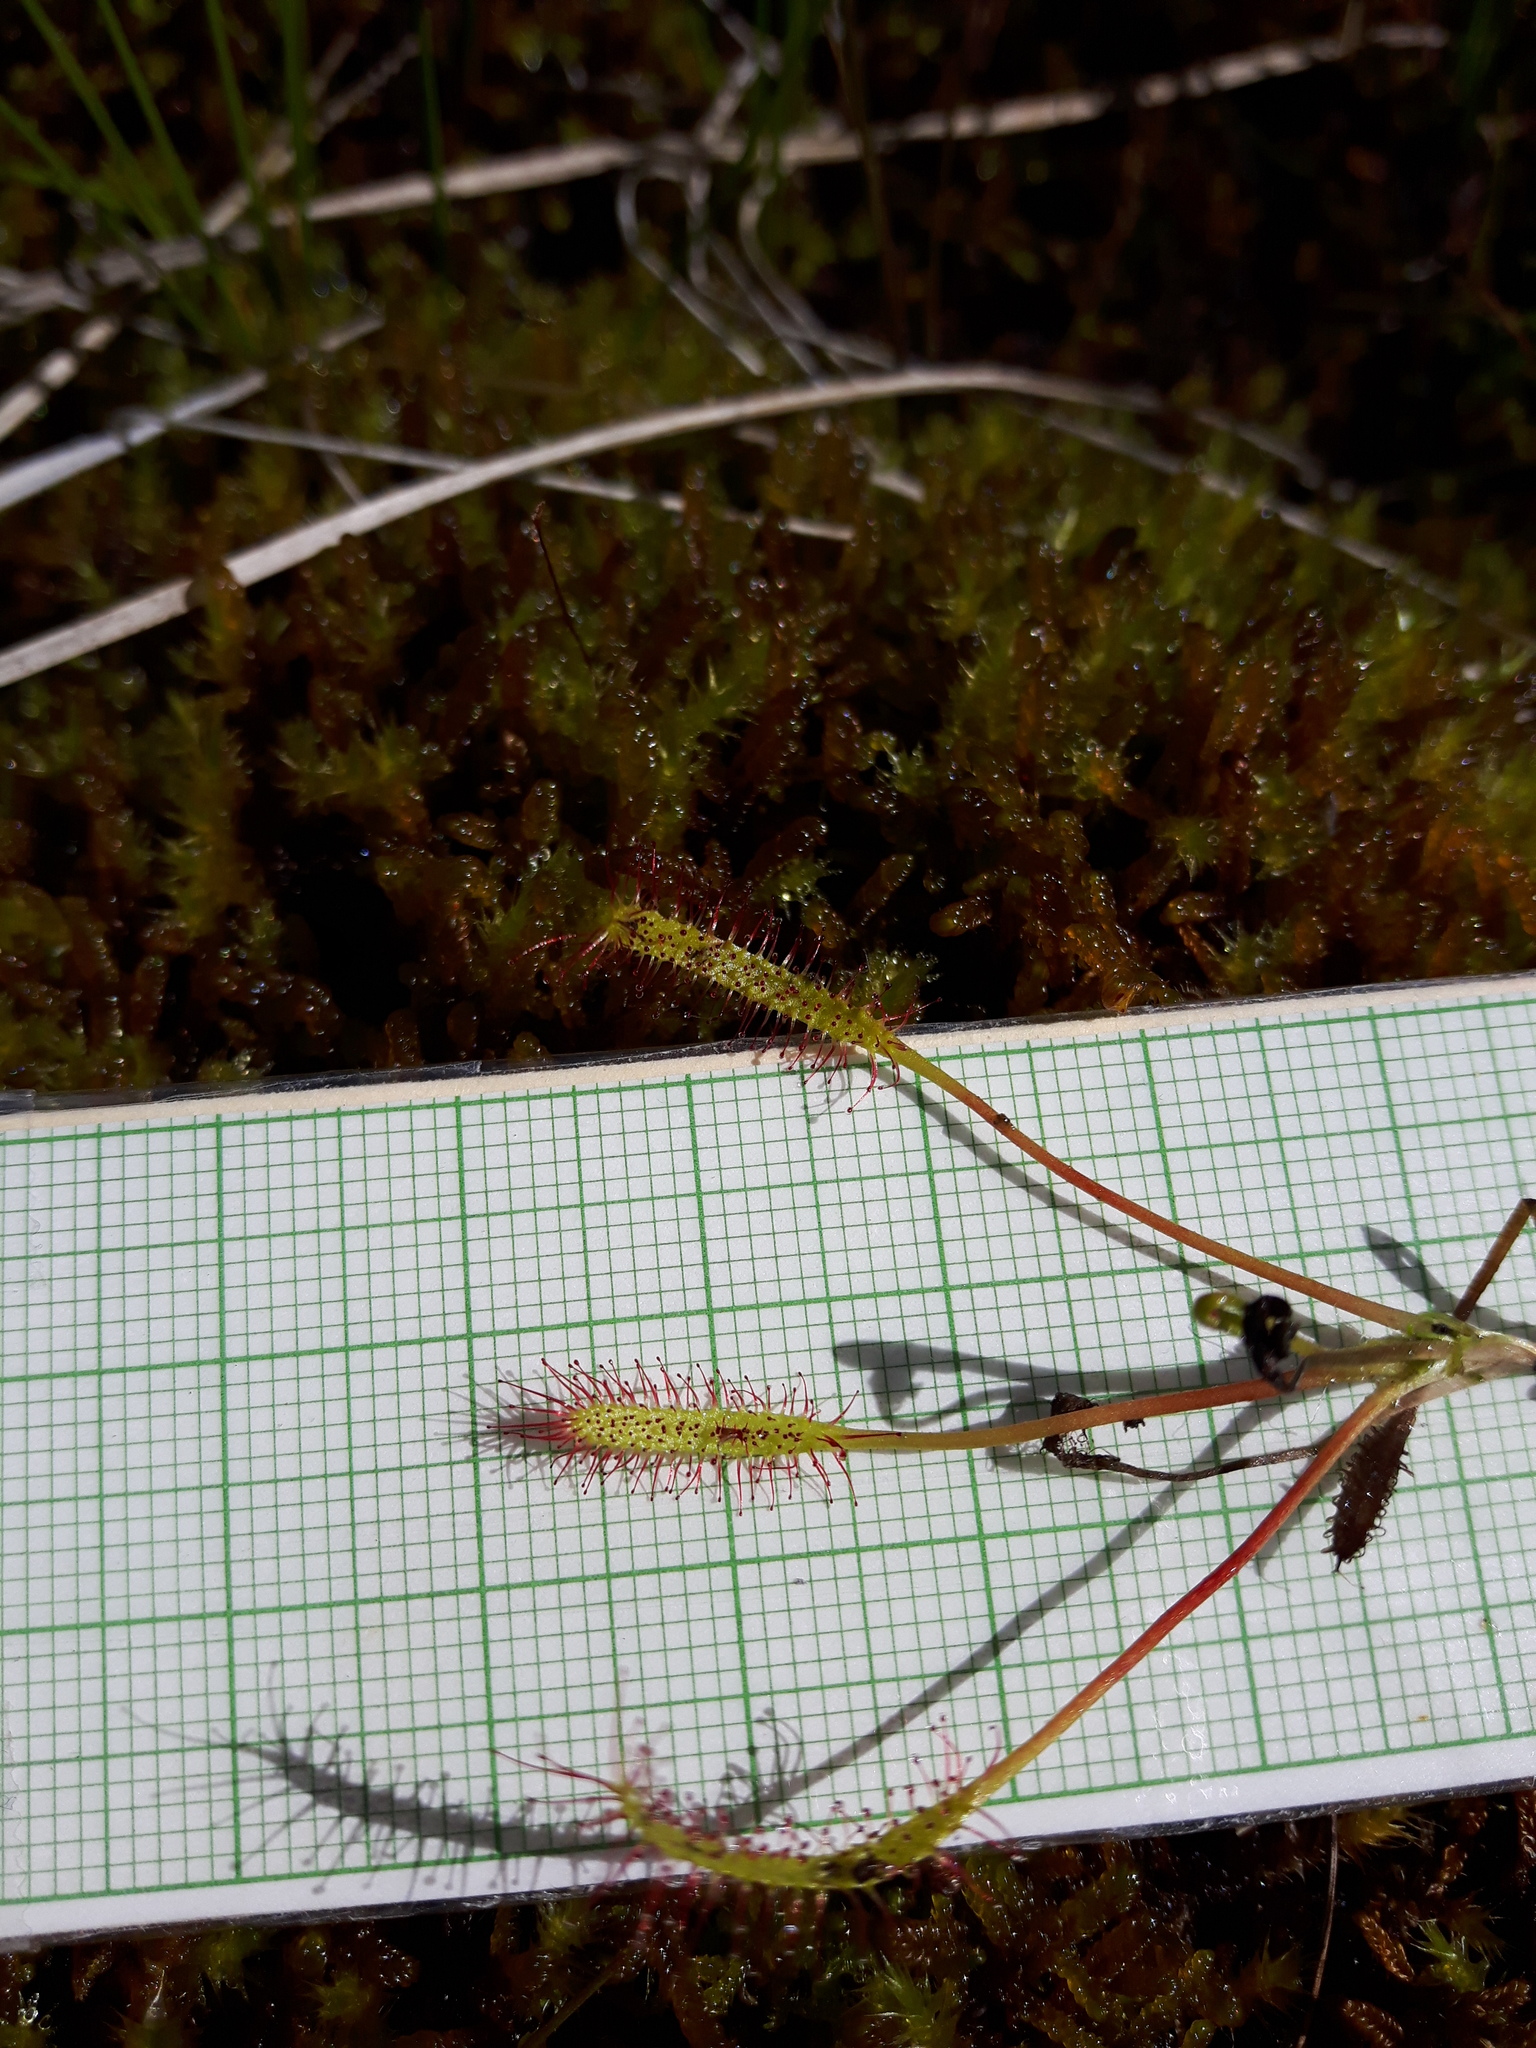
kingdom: Plantae
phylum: Tracheophyta
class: Magnoliopsida
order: Caryophyllales
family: Droseraceae
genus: Drosera
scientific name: Drosera linearis
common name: Linear-leaved sundew
